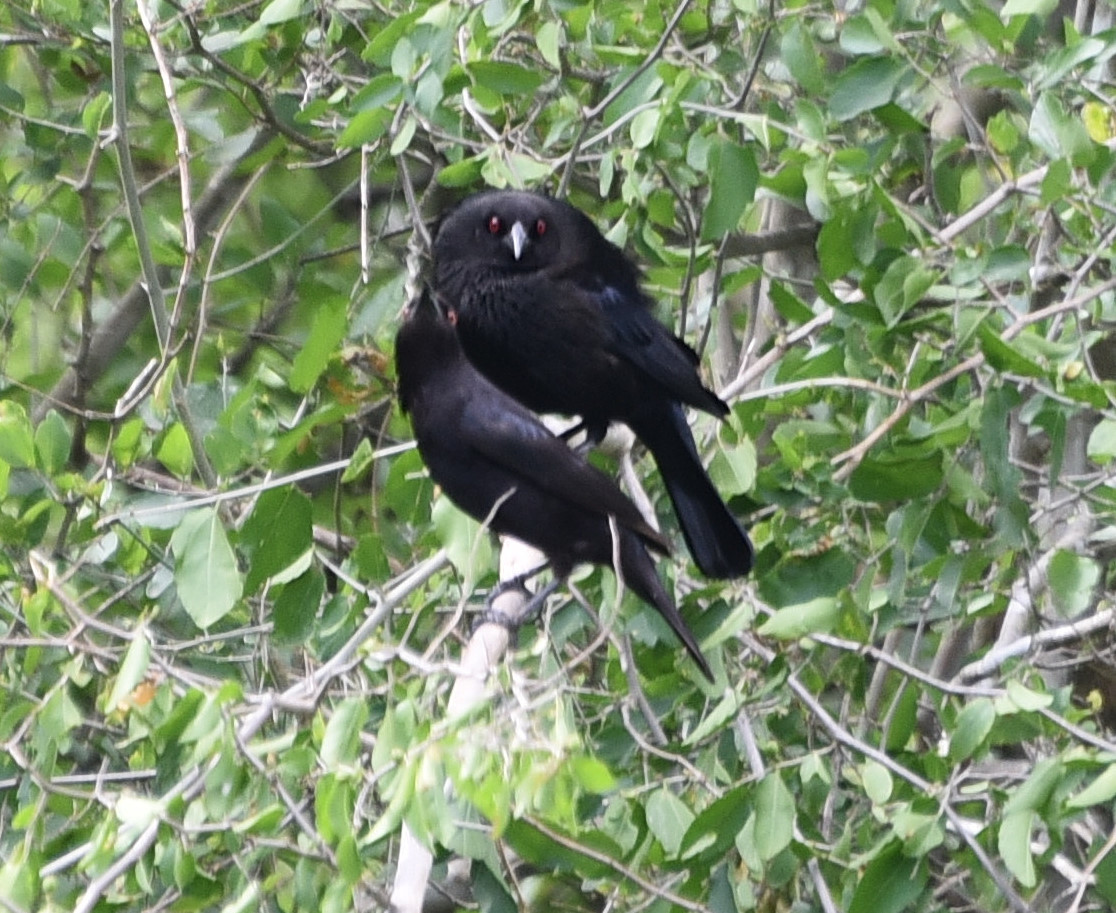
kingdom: Animalia
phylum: Chordata
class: Aves
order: Passeriformes
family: Icteridae
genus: Molothrus
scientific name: Molothrus aeneus
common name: Bronzed cowbird
